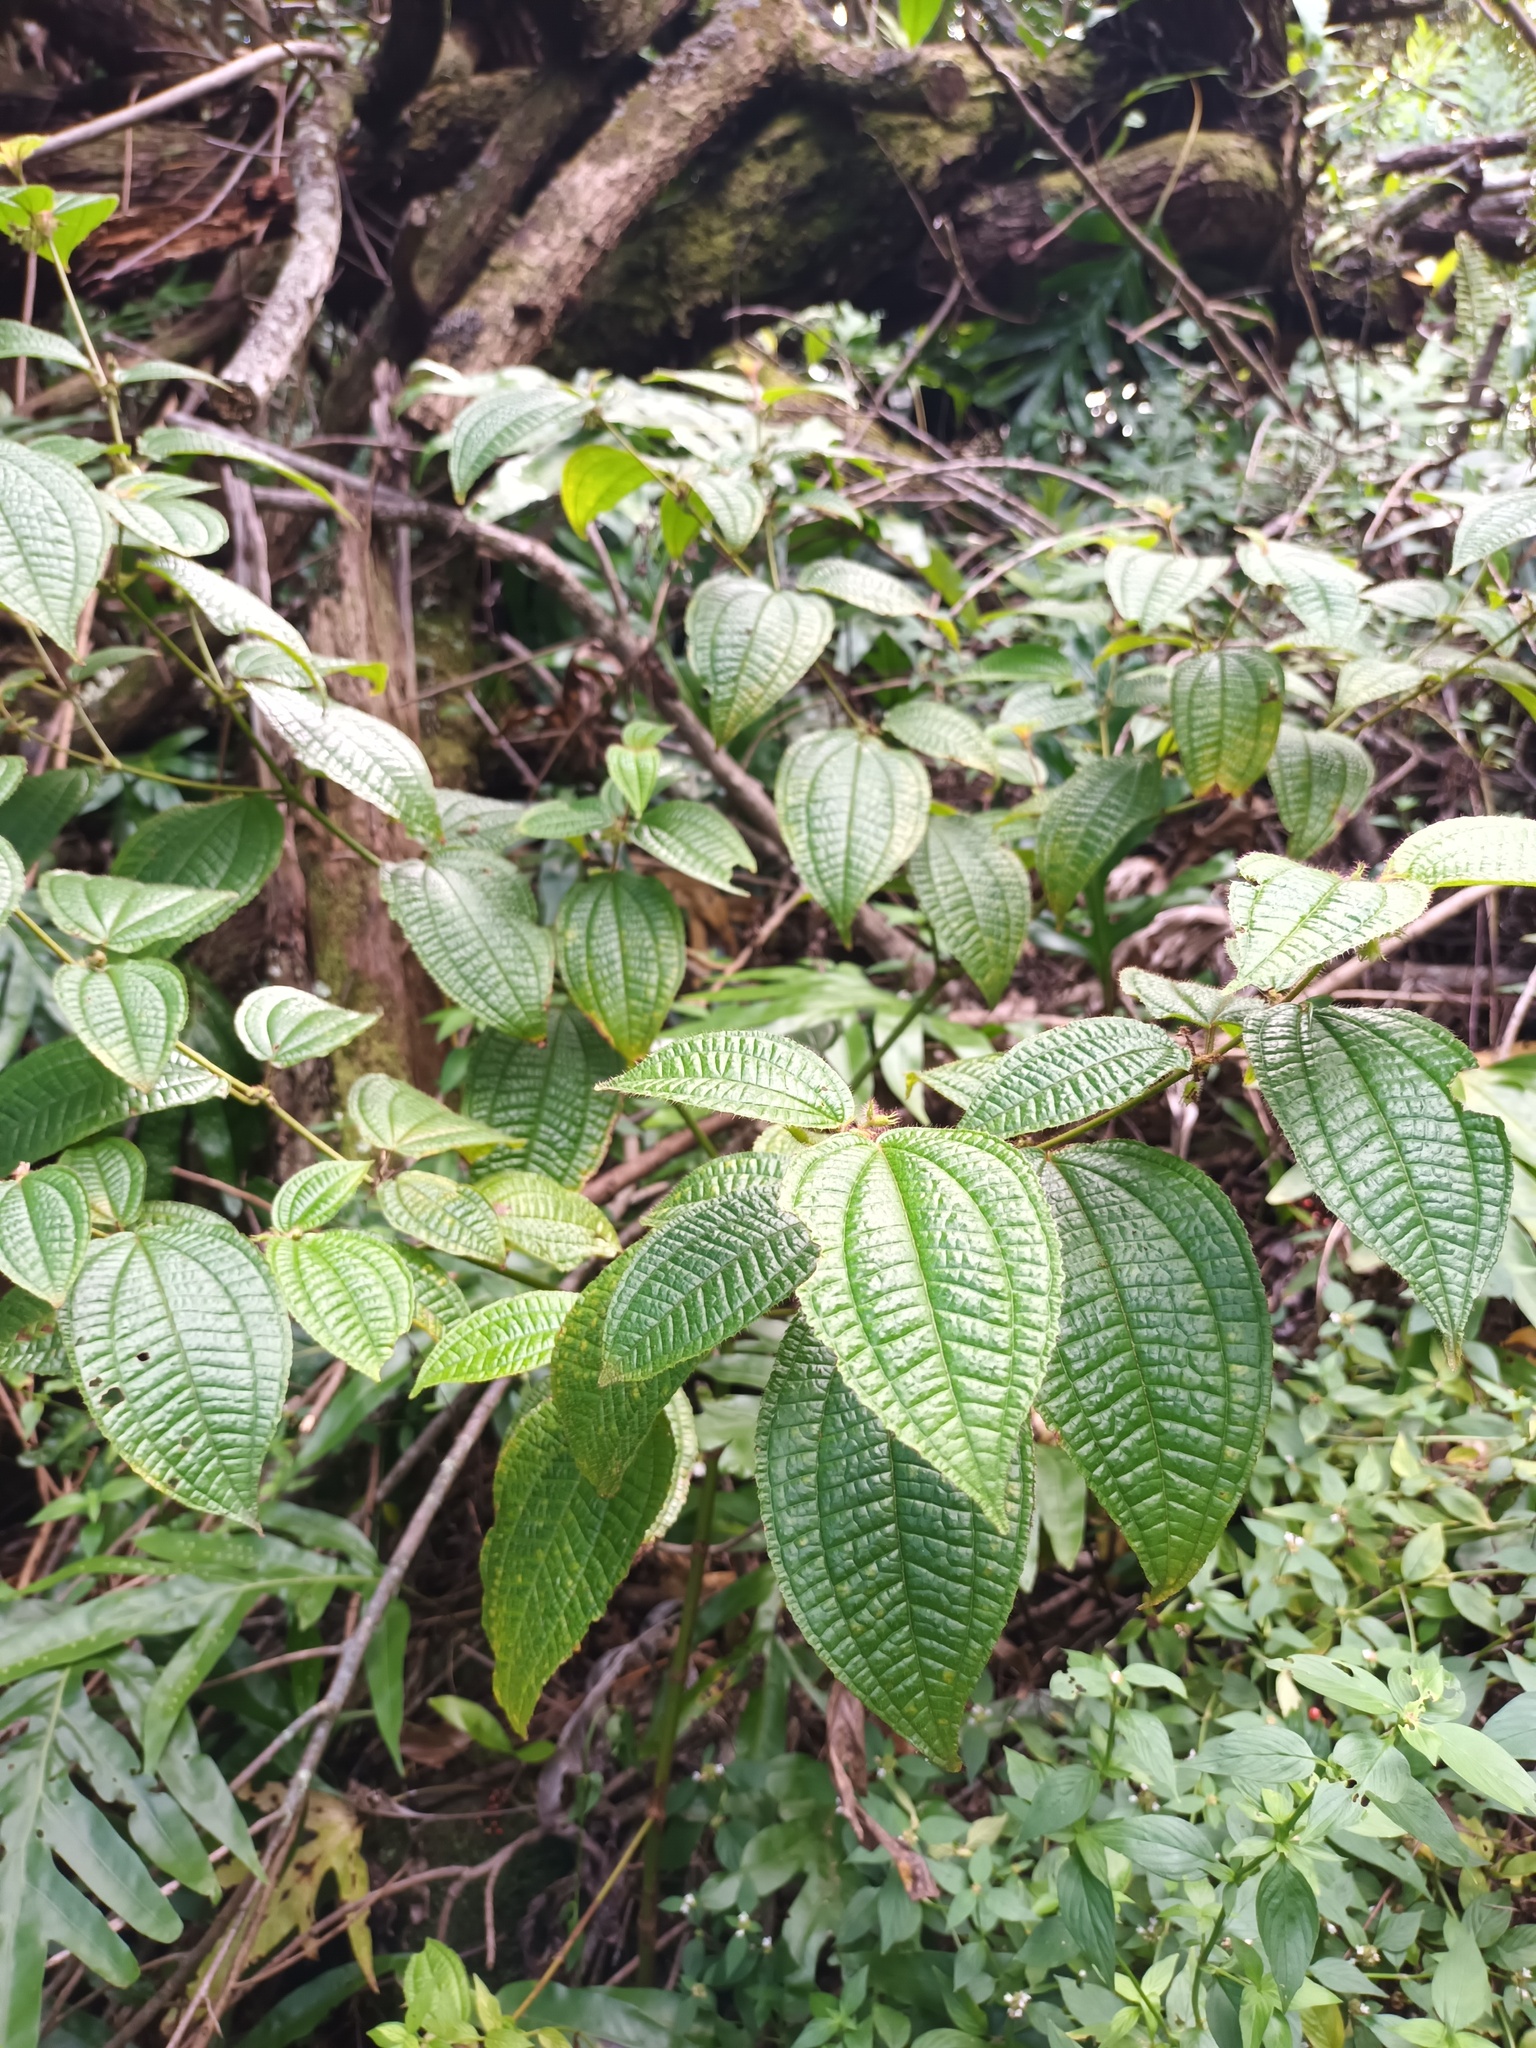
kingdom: Plantae
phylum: Tracheophyta
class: Magnoliopsida
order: Myrtales
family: Melastomataceae
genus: Miconia
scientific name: Miconia crenata
